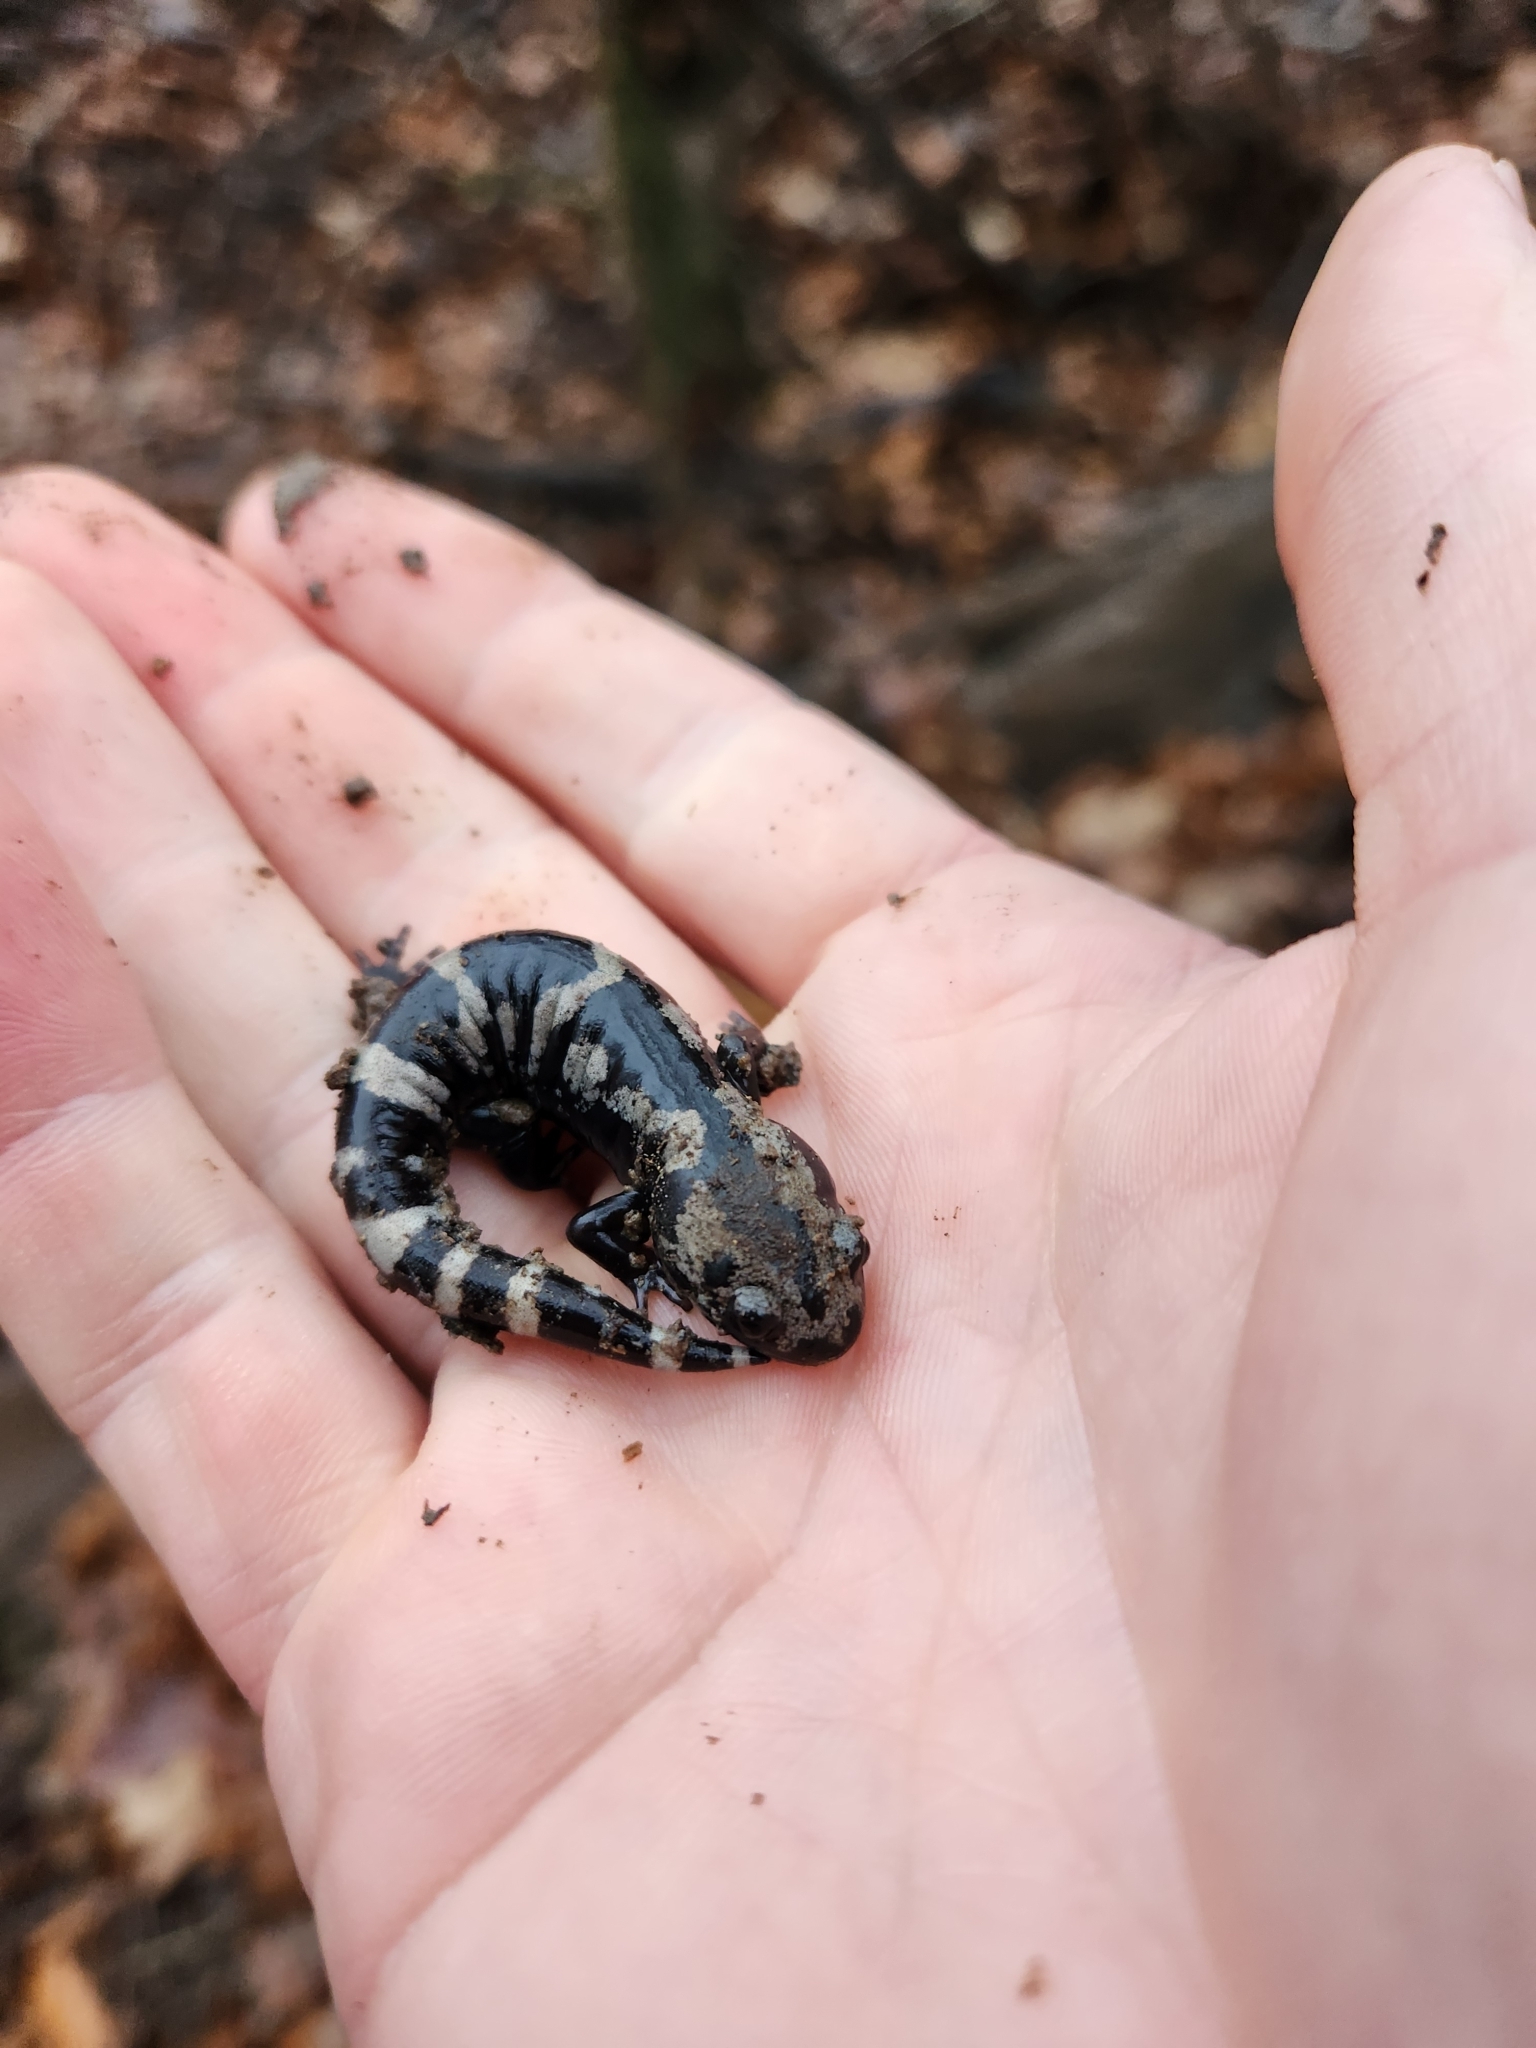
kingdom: Animalia
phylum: Chordata
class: Amphibia
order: Caudata
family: Ambystomatidae
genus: Ambystoma
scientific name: Ambystoma opacum
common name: Marbled salamander
